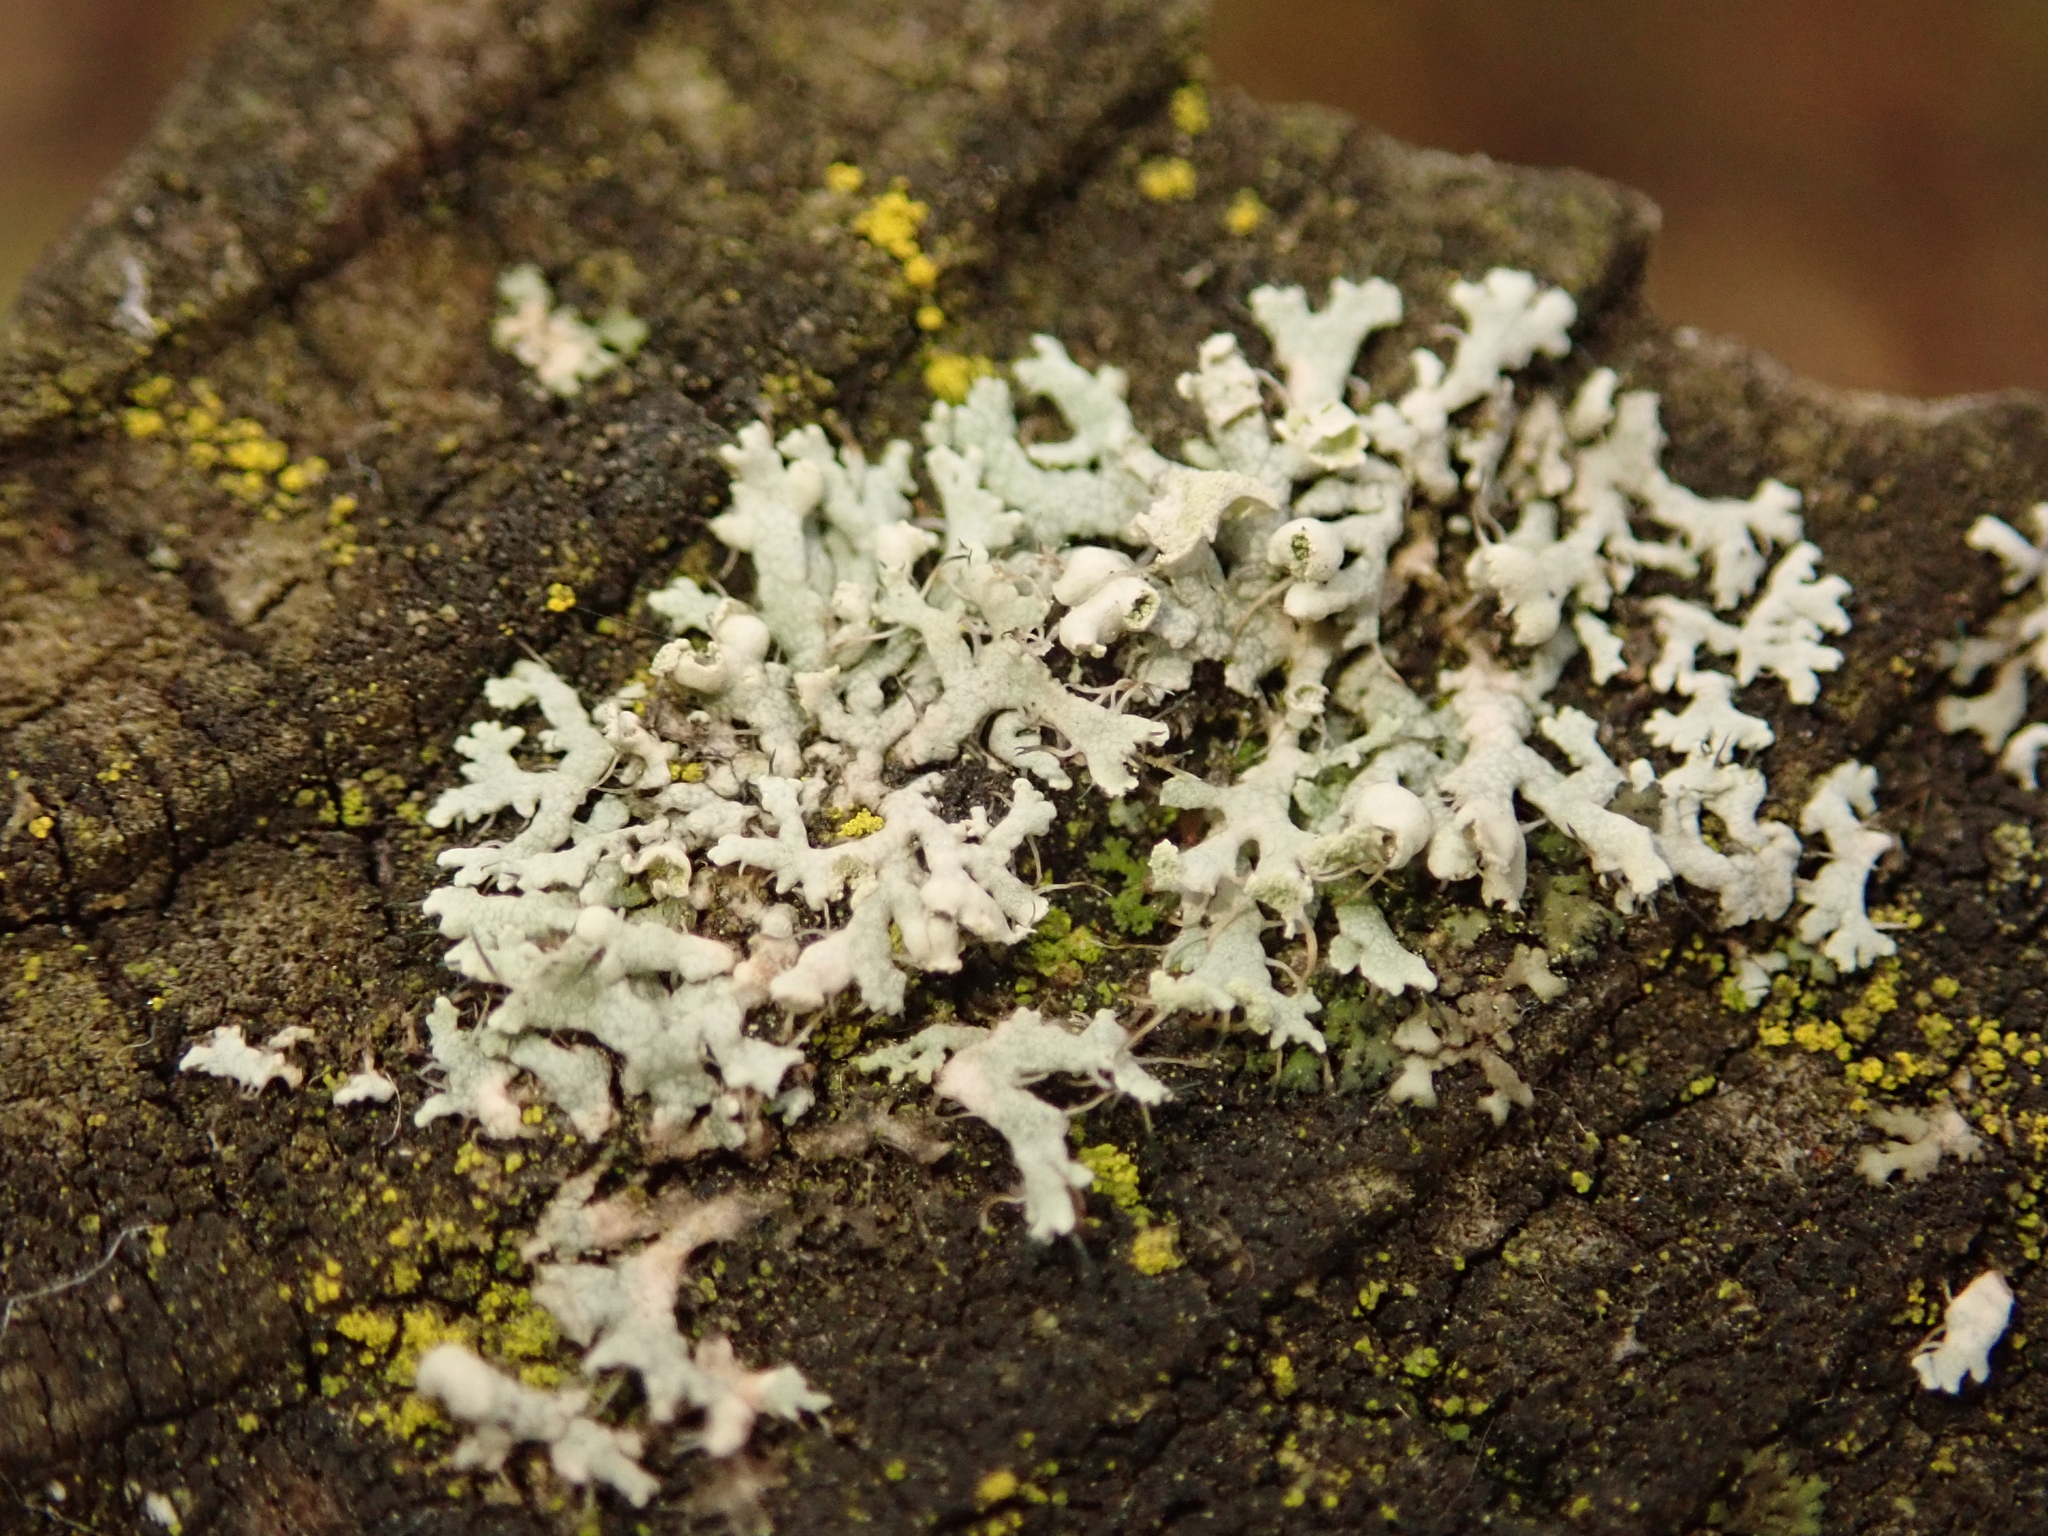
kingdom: Fungi
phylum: Ascomycota
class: Lecanoromycetes
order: Caliciales
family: Physciaceae
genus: Physcia
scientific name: Physcia adscendens
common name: Hooded rosette lichen
